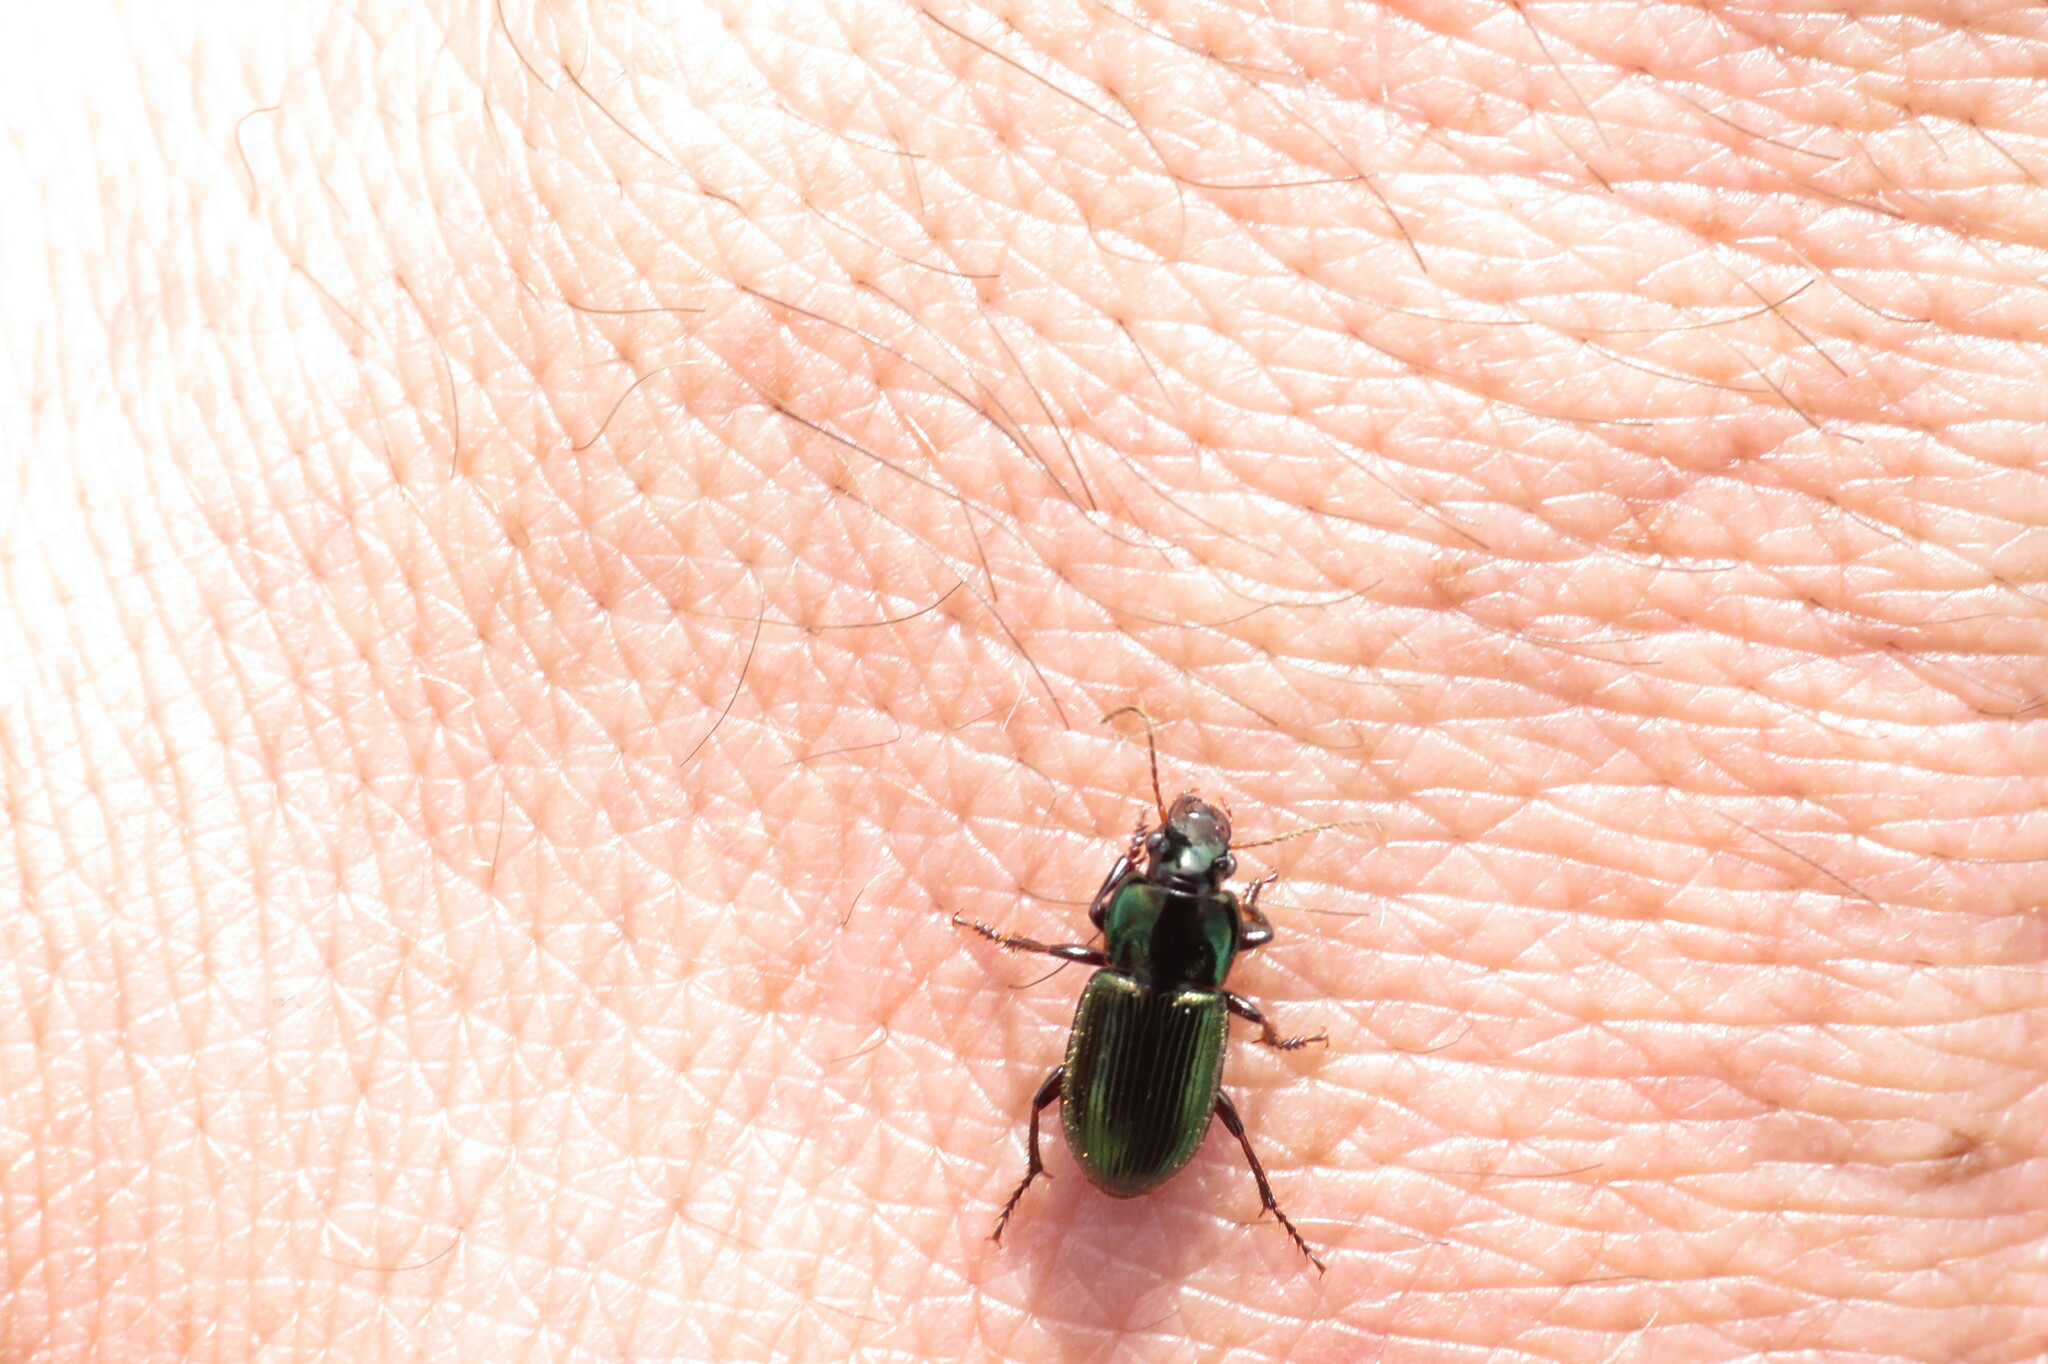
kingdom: Animalia
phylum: Arthropoda
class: Insecta
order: Coleoptera
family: Carabidae
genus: Harpalus
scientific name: Harpalus affinis
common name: Polychrome harp ground beetle
